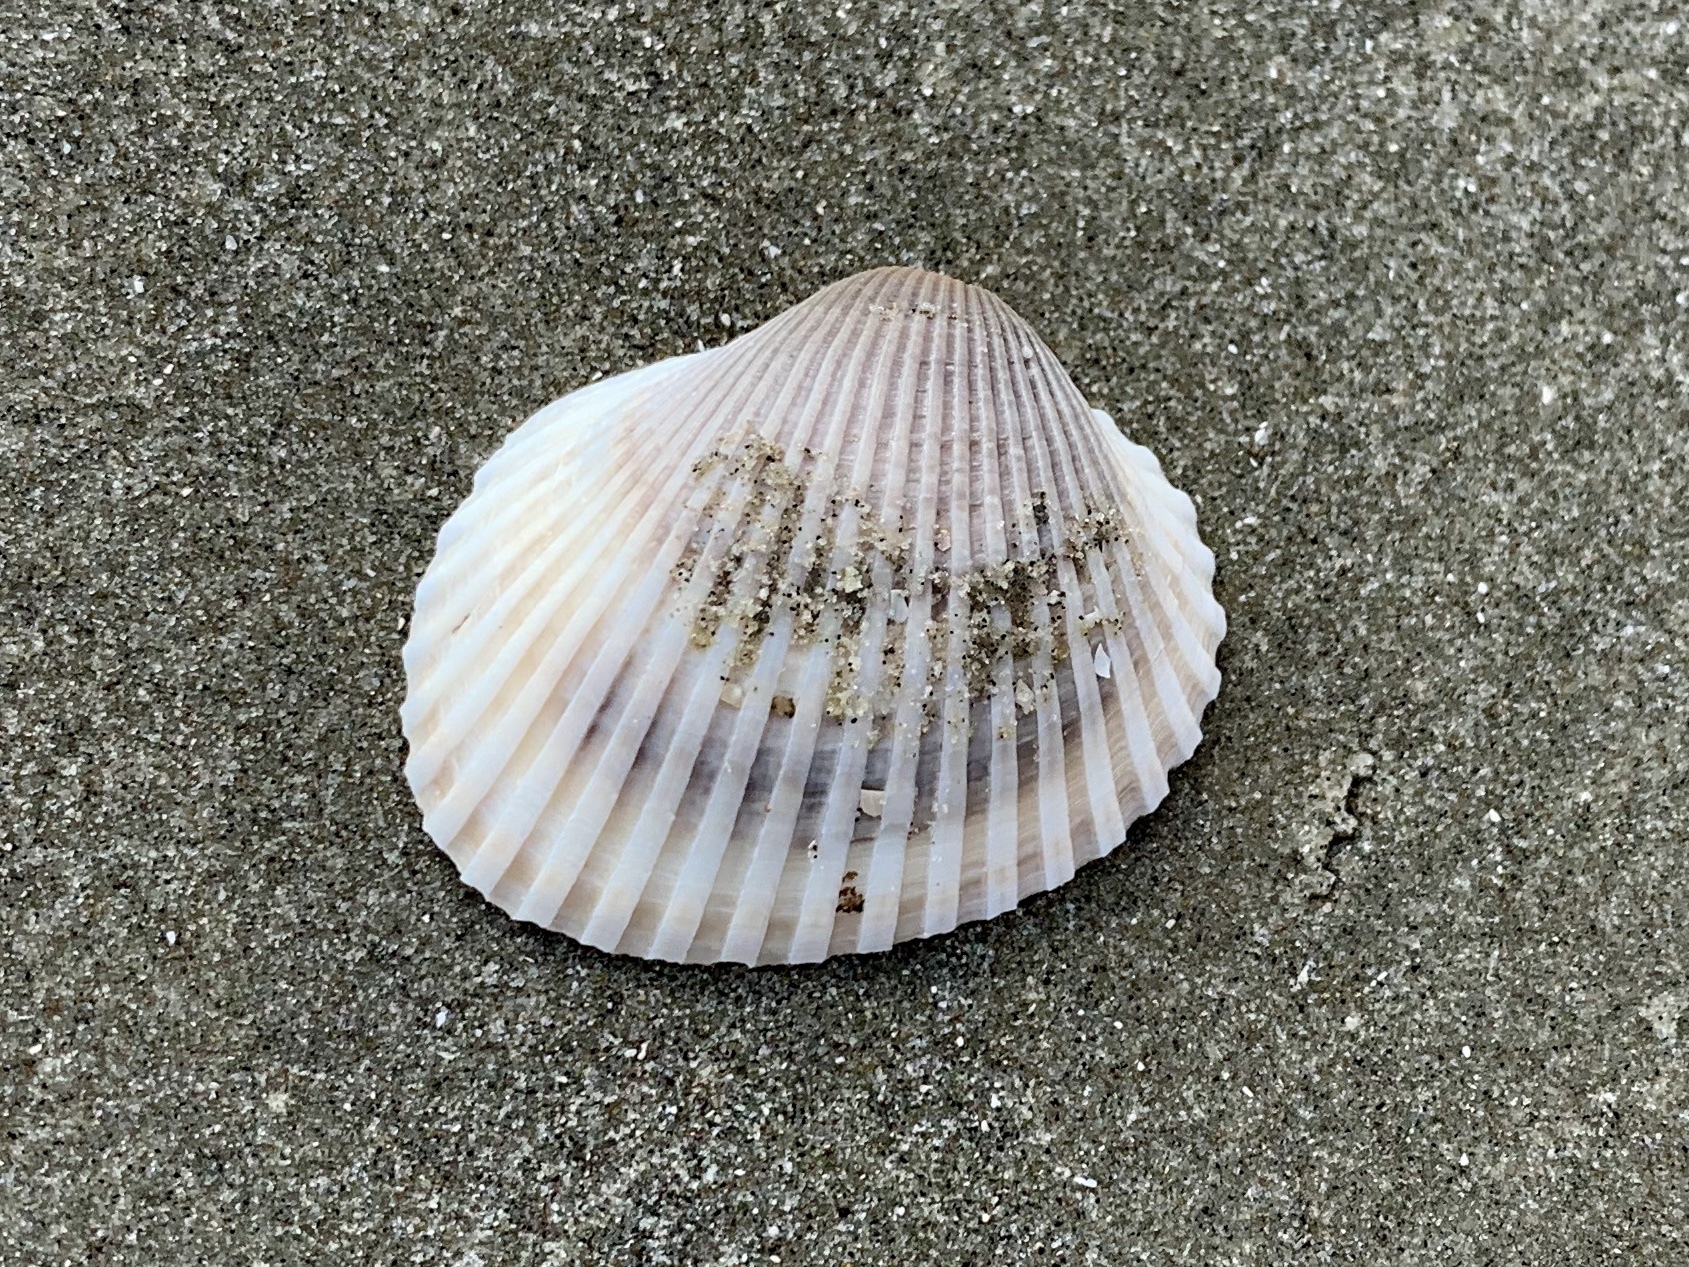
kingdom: Animalia
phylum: Mollusca
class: Bivalvia
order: Arcida
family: Arcidae
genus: Lunarca
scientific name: Lunarca ovalis
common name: Blood ark
